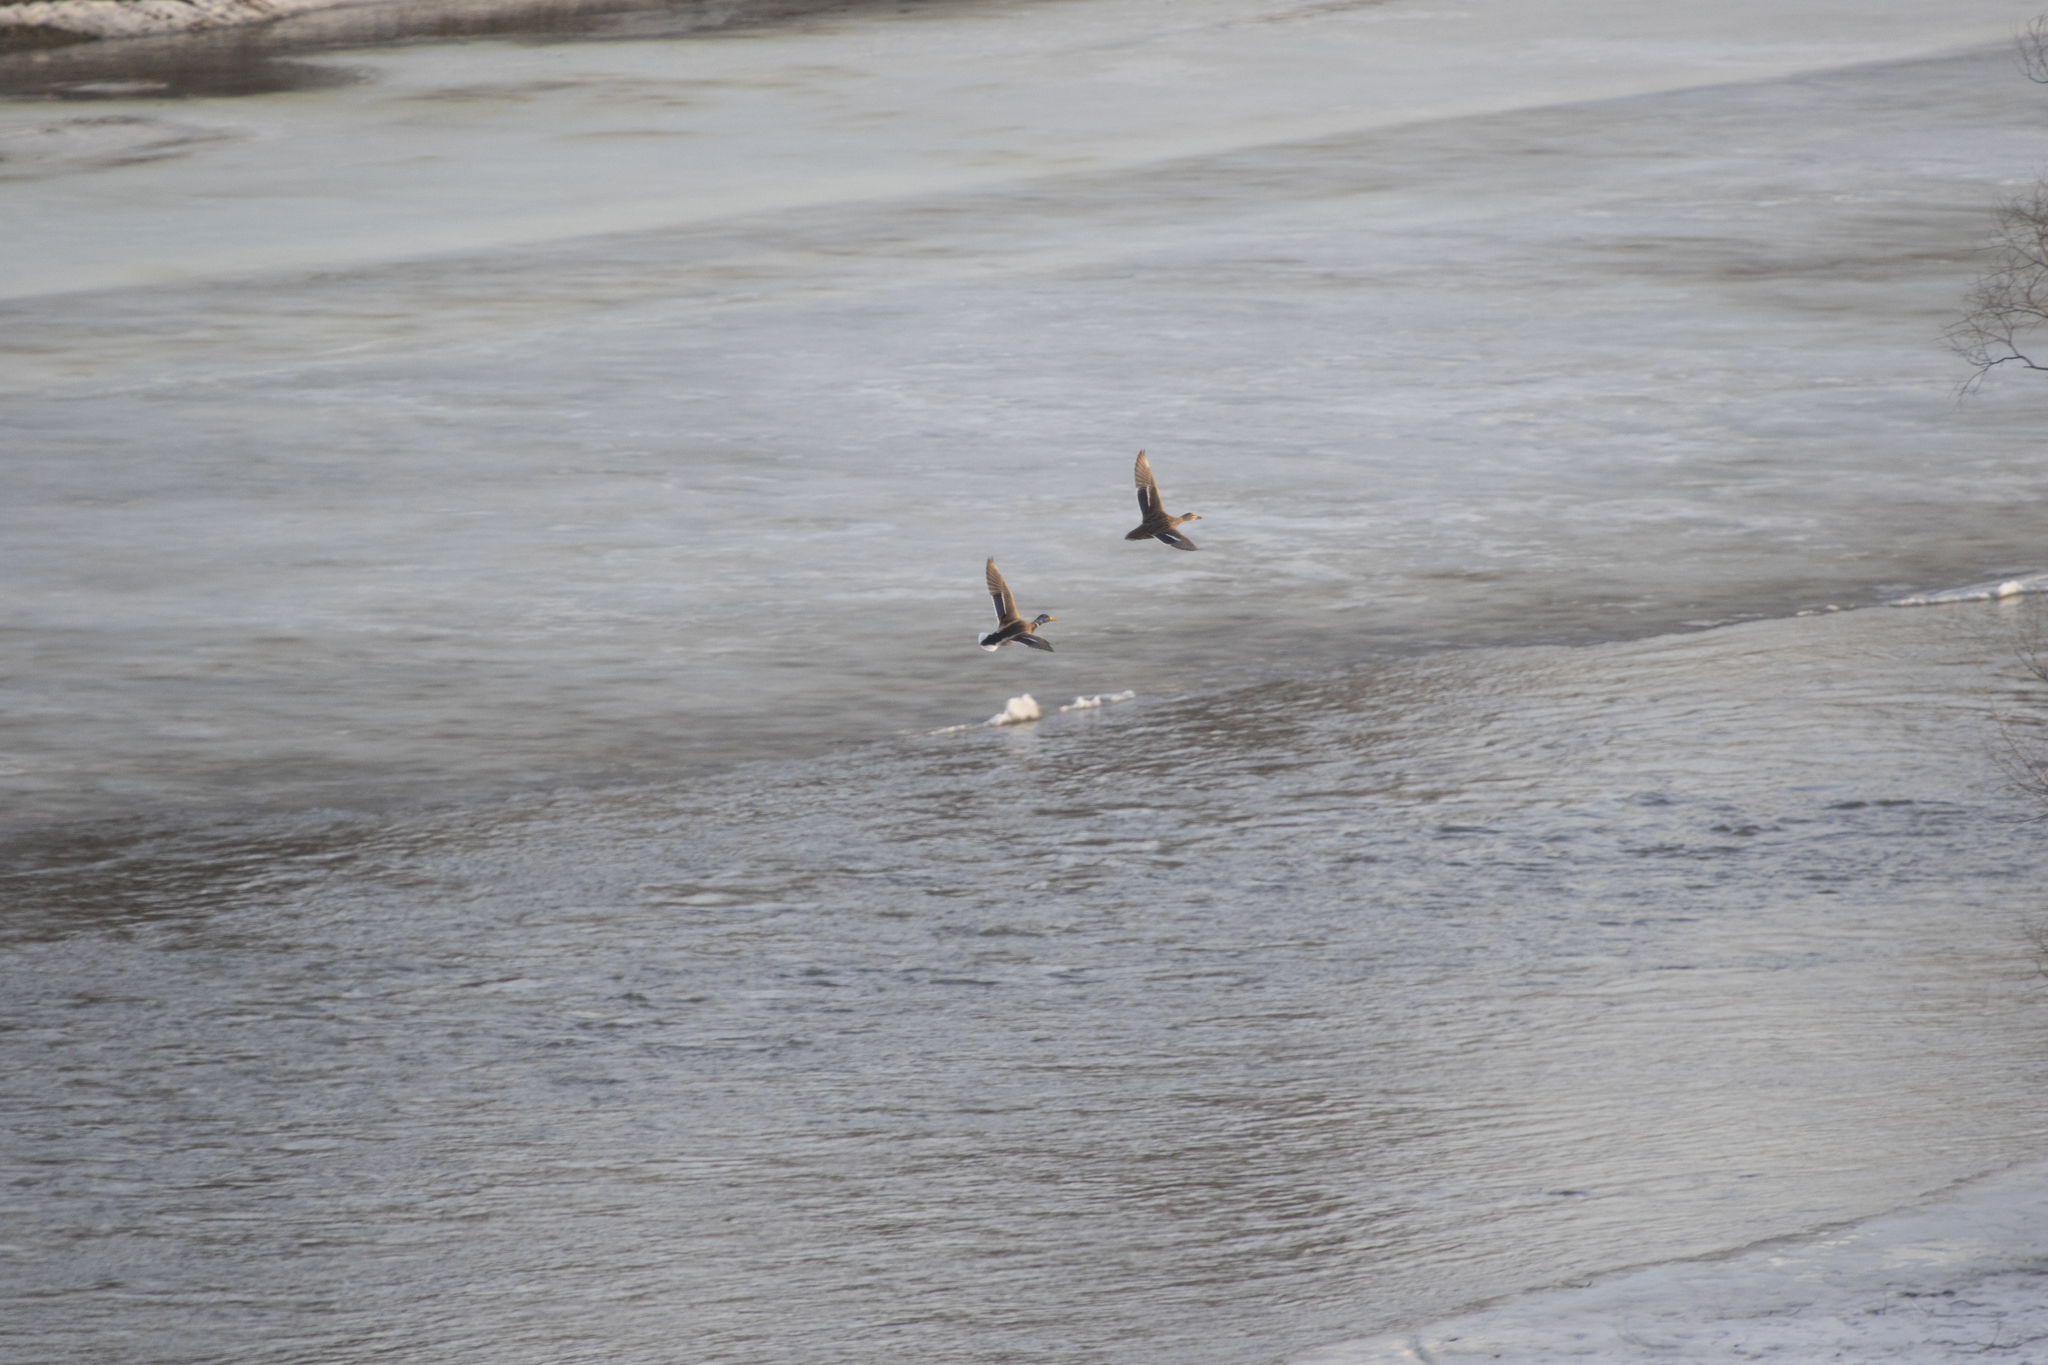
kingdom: Animalia
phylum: Chordata
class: Aves
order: Anseriformes
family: Anatidae
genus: Anas
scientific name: Anas platyrhynchos
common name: Mallard
